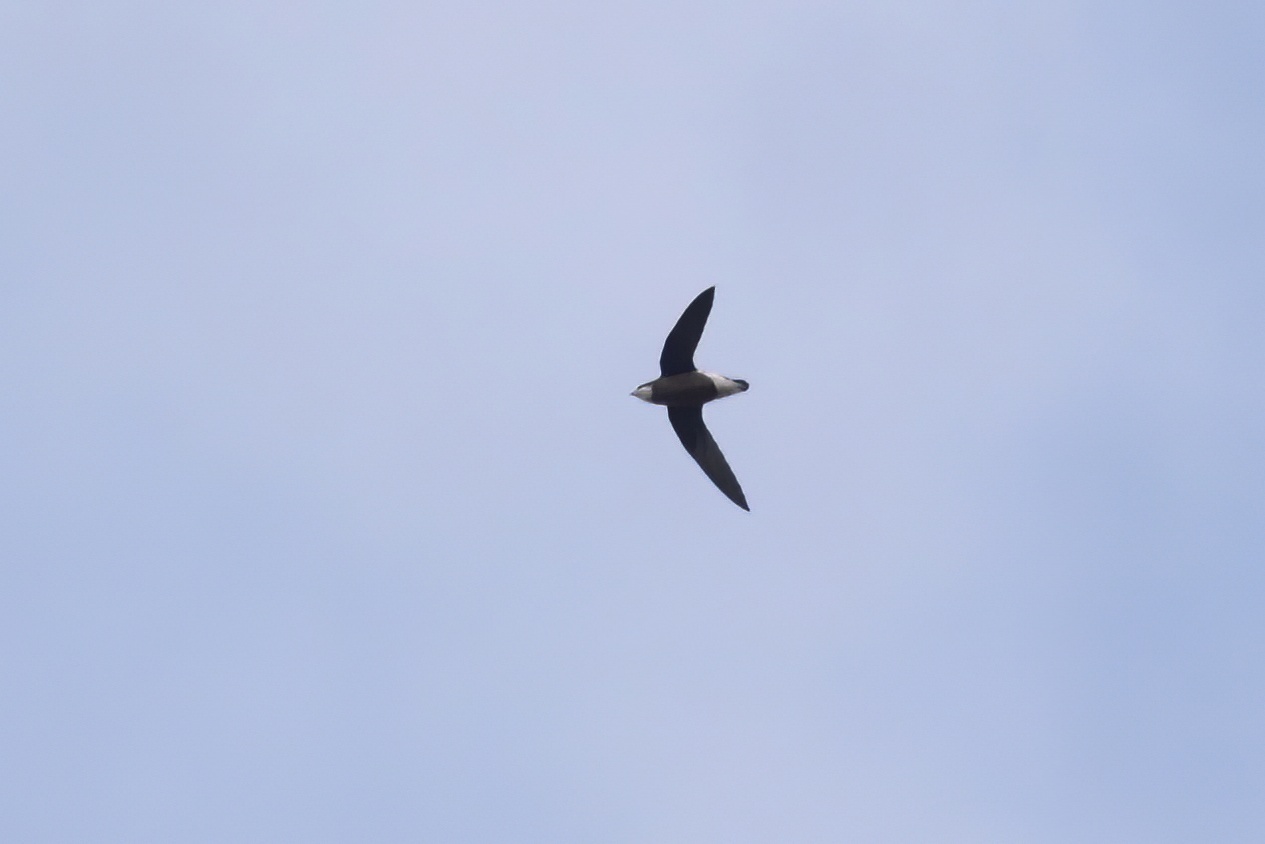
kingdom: Animalia
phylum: Chordata
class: Aves
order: Apodiformes
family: Apodidae
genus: Hirundapus
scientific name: Hirundapus caudacutus
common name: White-throated needletail
